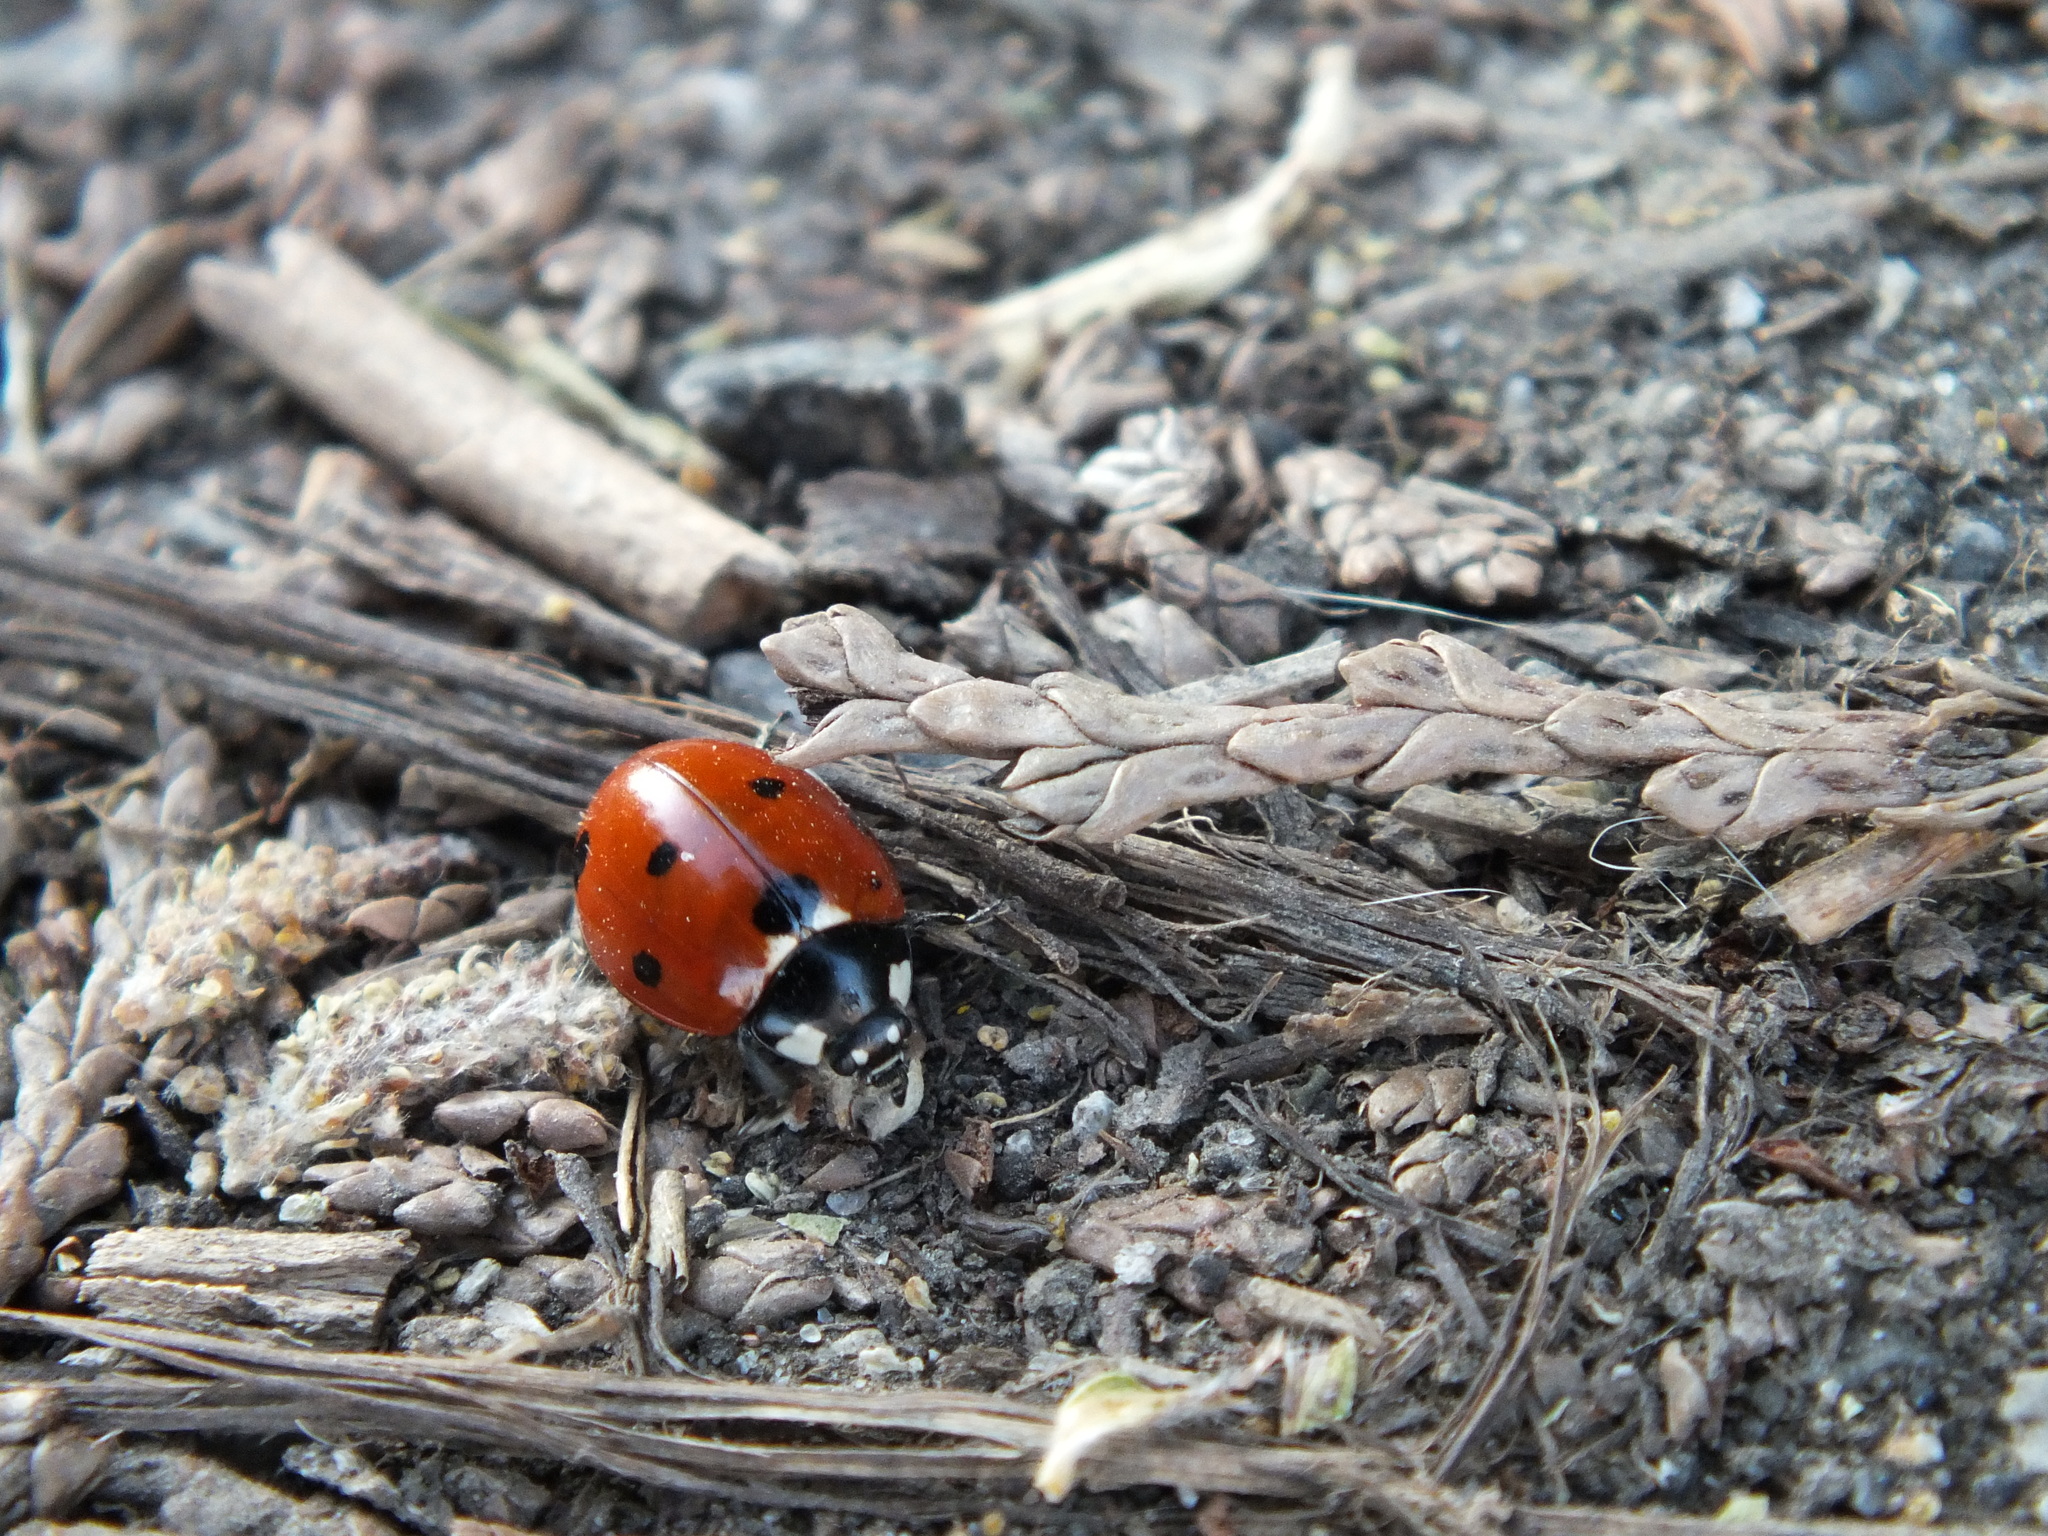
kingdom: Animalia
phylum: Arthropoda
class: Insecta
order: Coleoptera
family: Coccinellidae
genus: Coccinella
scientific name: Coccinella septempunctata
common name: Sevenspotted lady beetle
